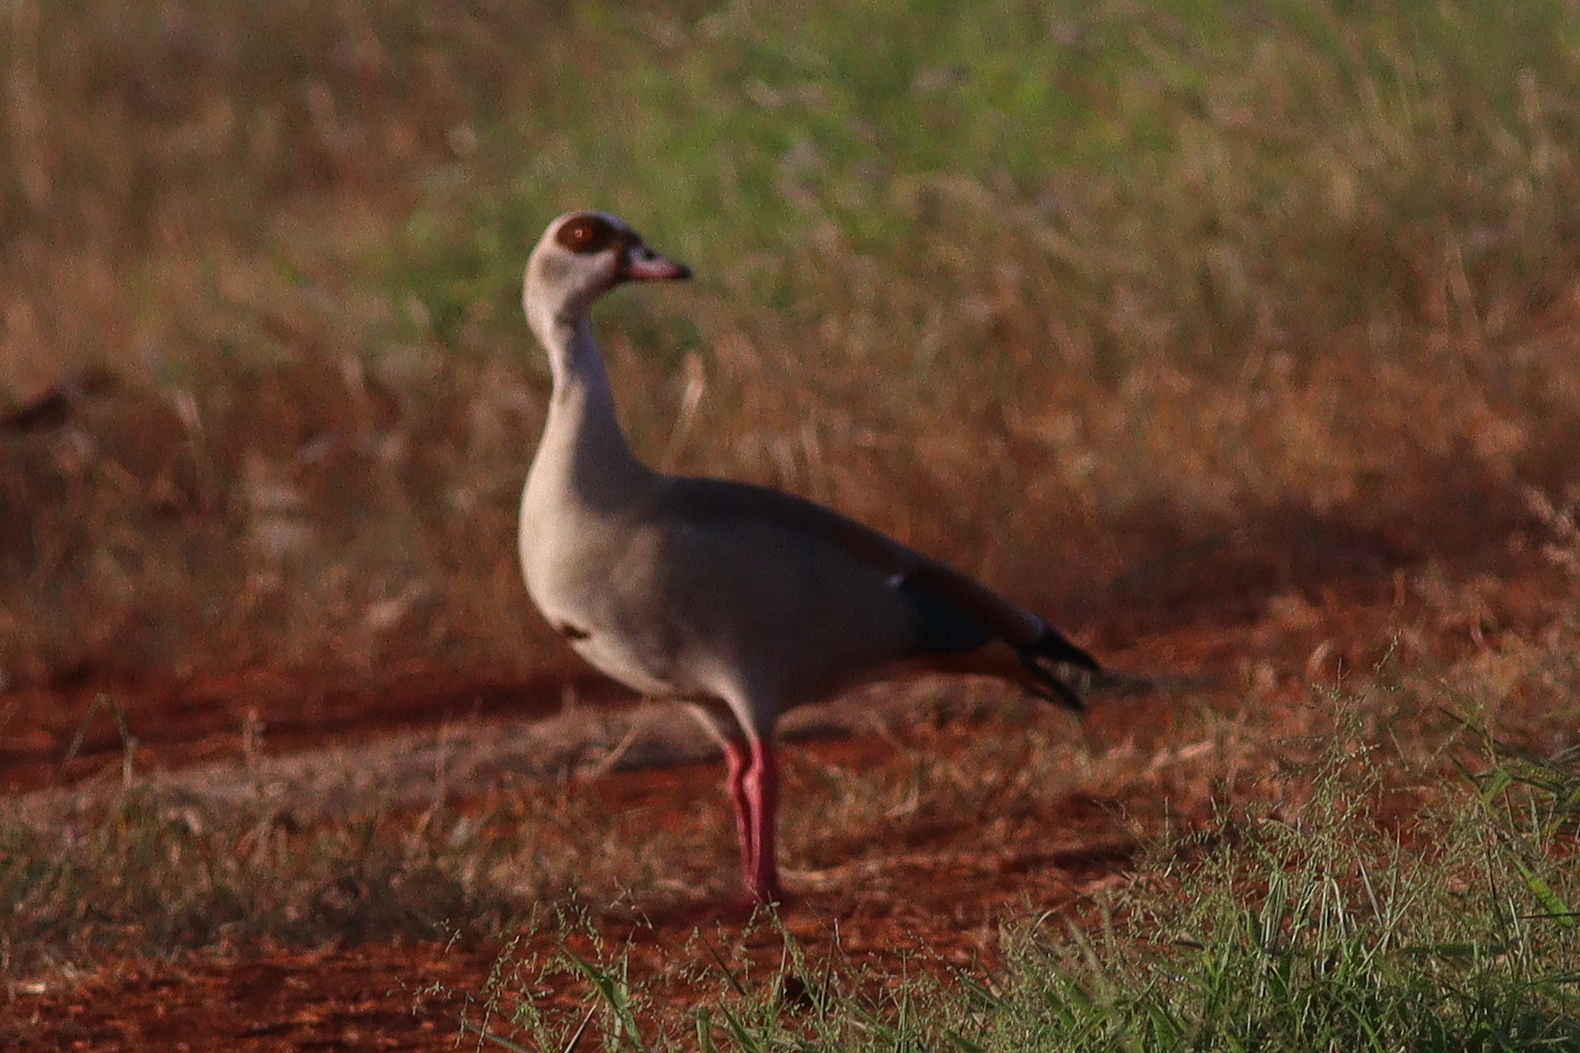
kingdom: Animalia
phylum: Chordata
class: Aves
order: Anseriformes
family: Anatidae
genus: Alopochen
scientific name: Alopochen aegyptiaca
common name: Egyptian goose
